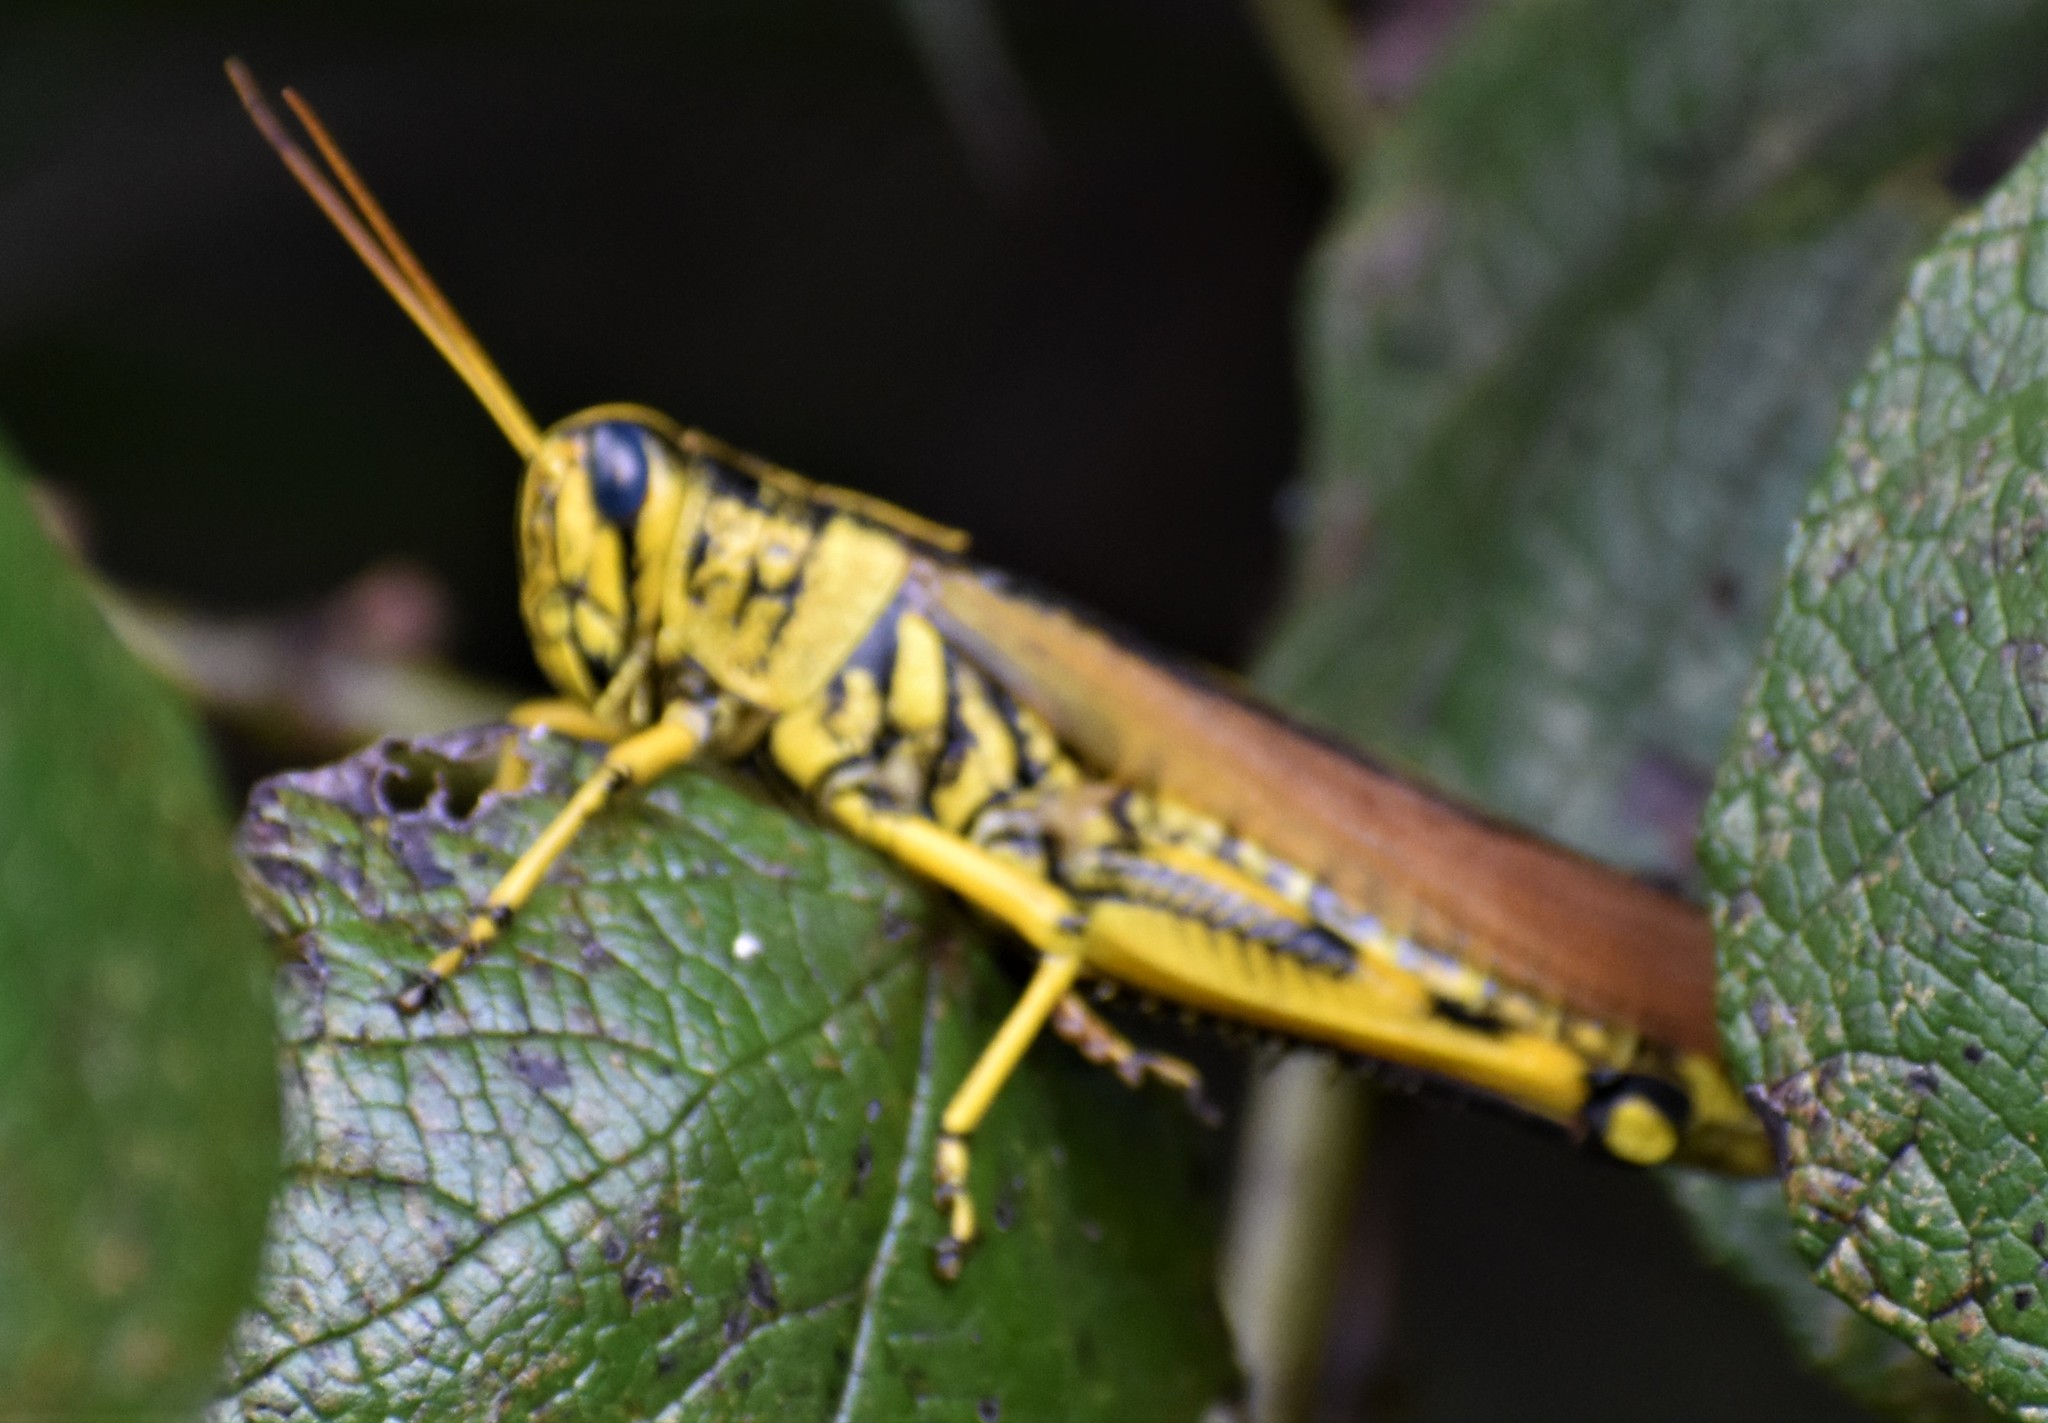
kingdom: Animalia
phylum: Arthropoda
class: Insecta
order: Orthoptera
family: Acrididae
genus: Schistocerca
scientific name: Schistocerca lineata
